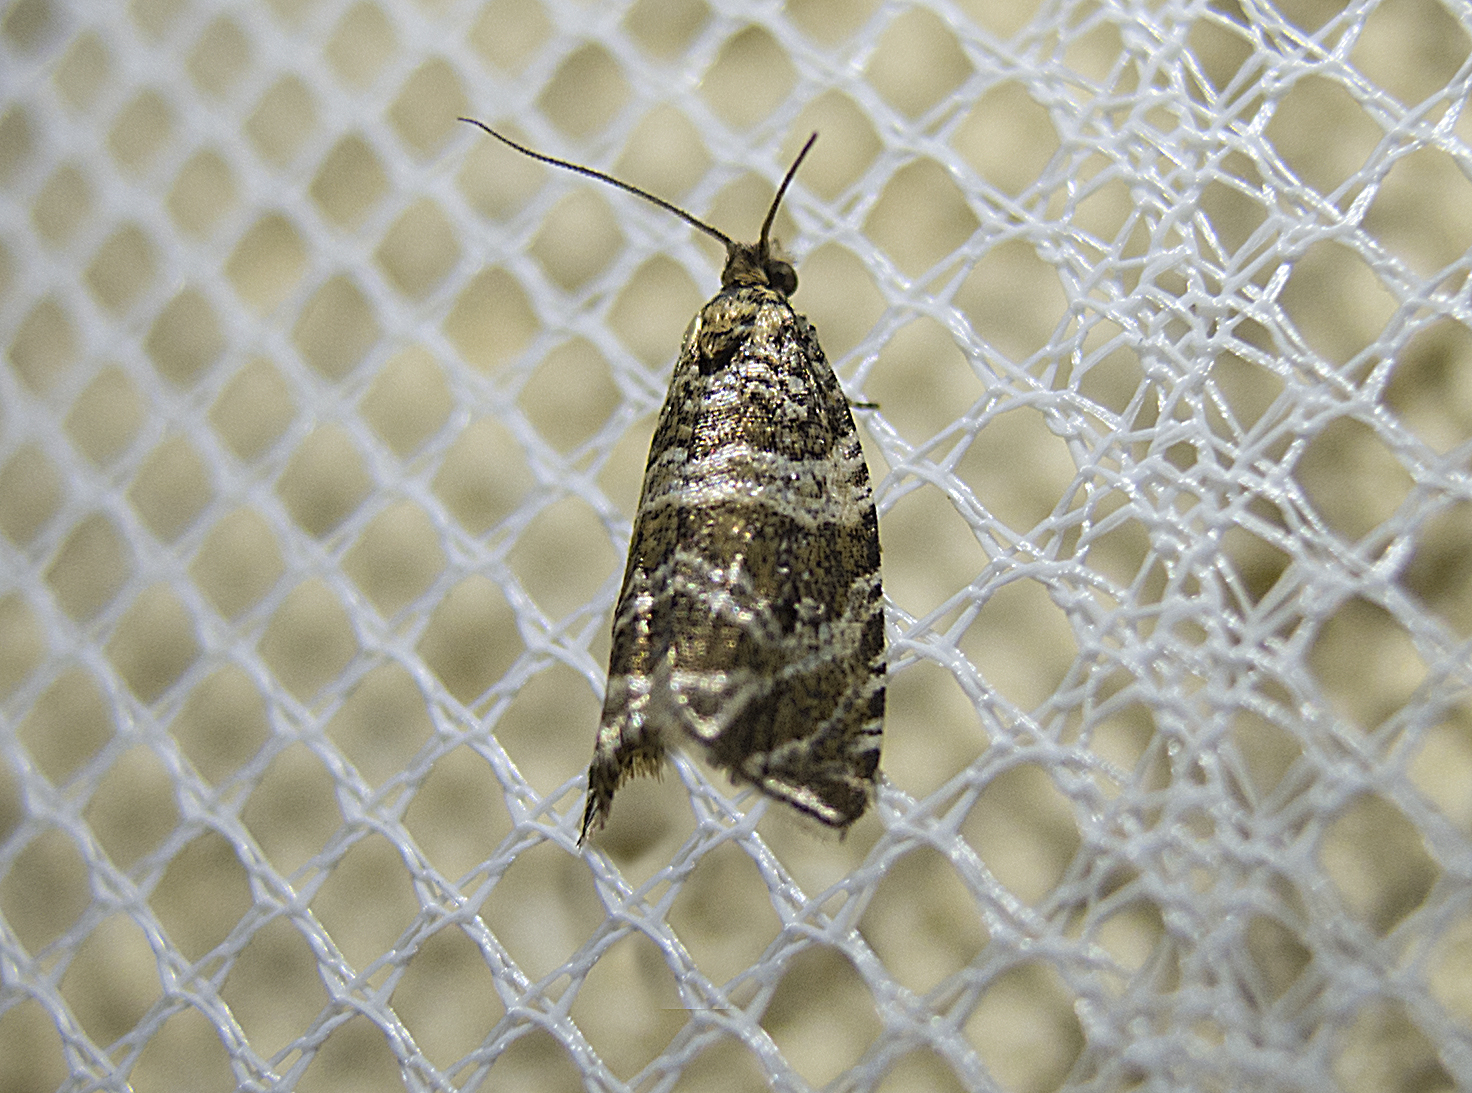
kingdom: Animalia
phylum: Arthropoda
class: Insecta
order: Lepidoptera
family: Tortricidae
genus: Syricoris
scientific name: Syricoris rivulana
